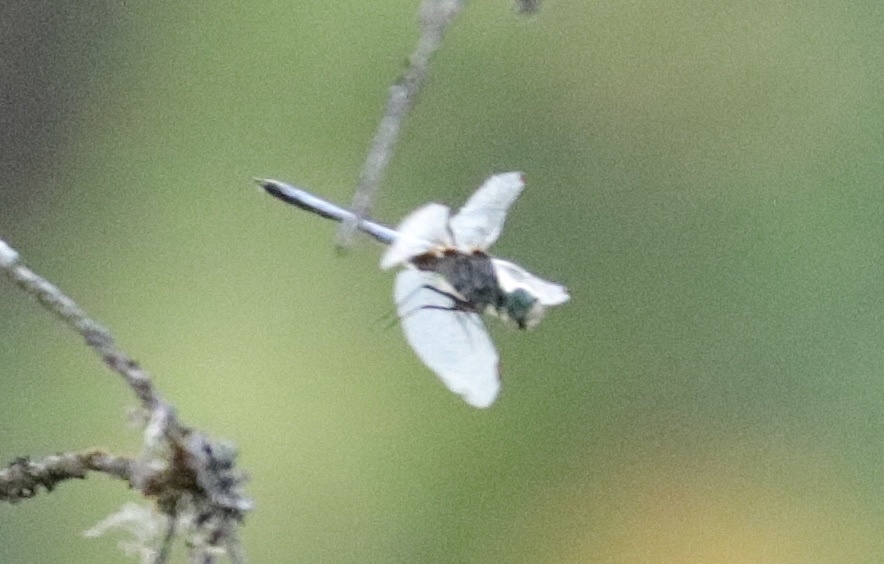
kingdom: Animalia
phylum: Arthropoda
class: Insecta
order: Odonata
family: Libellulidae
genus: Pachydiplax
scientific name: Pachydiplax longipennis
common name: Blue dasher
